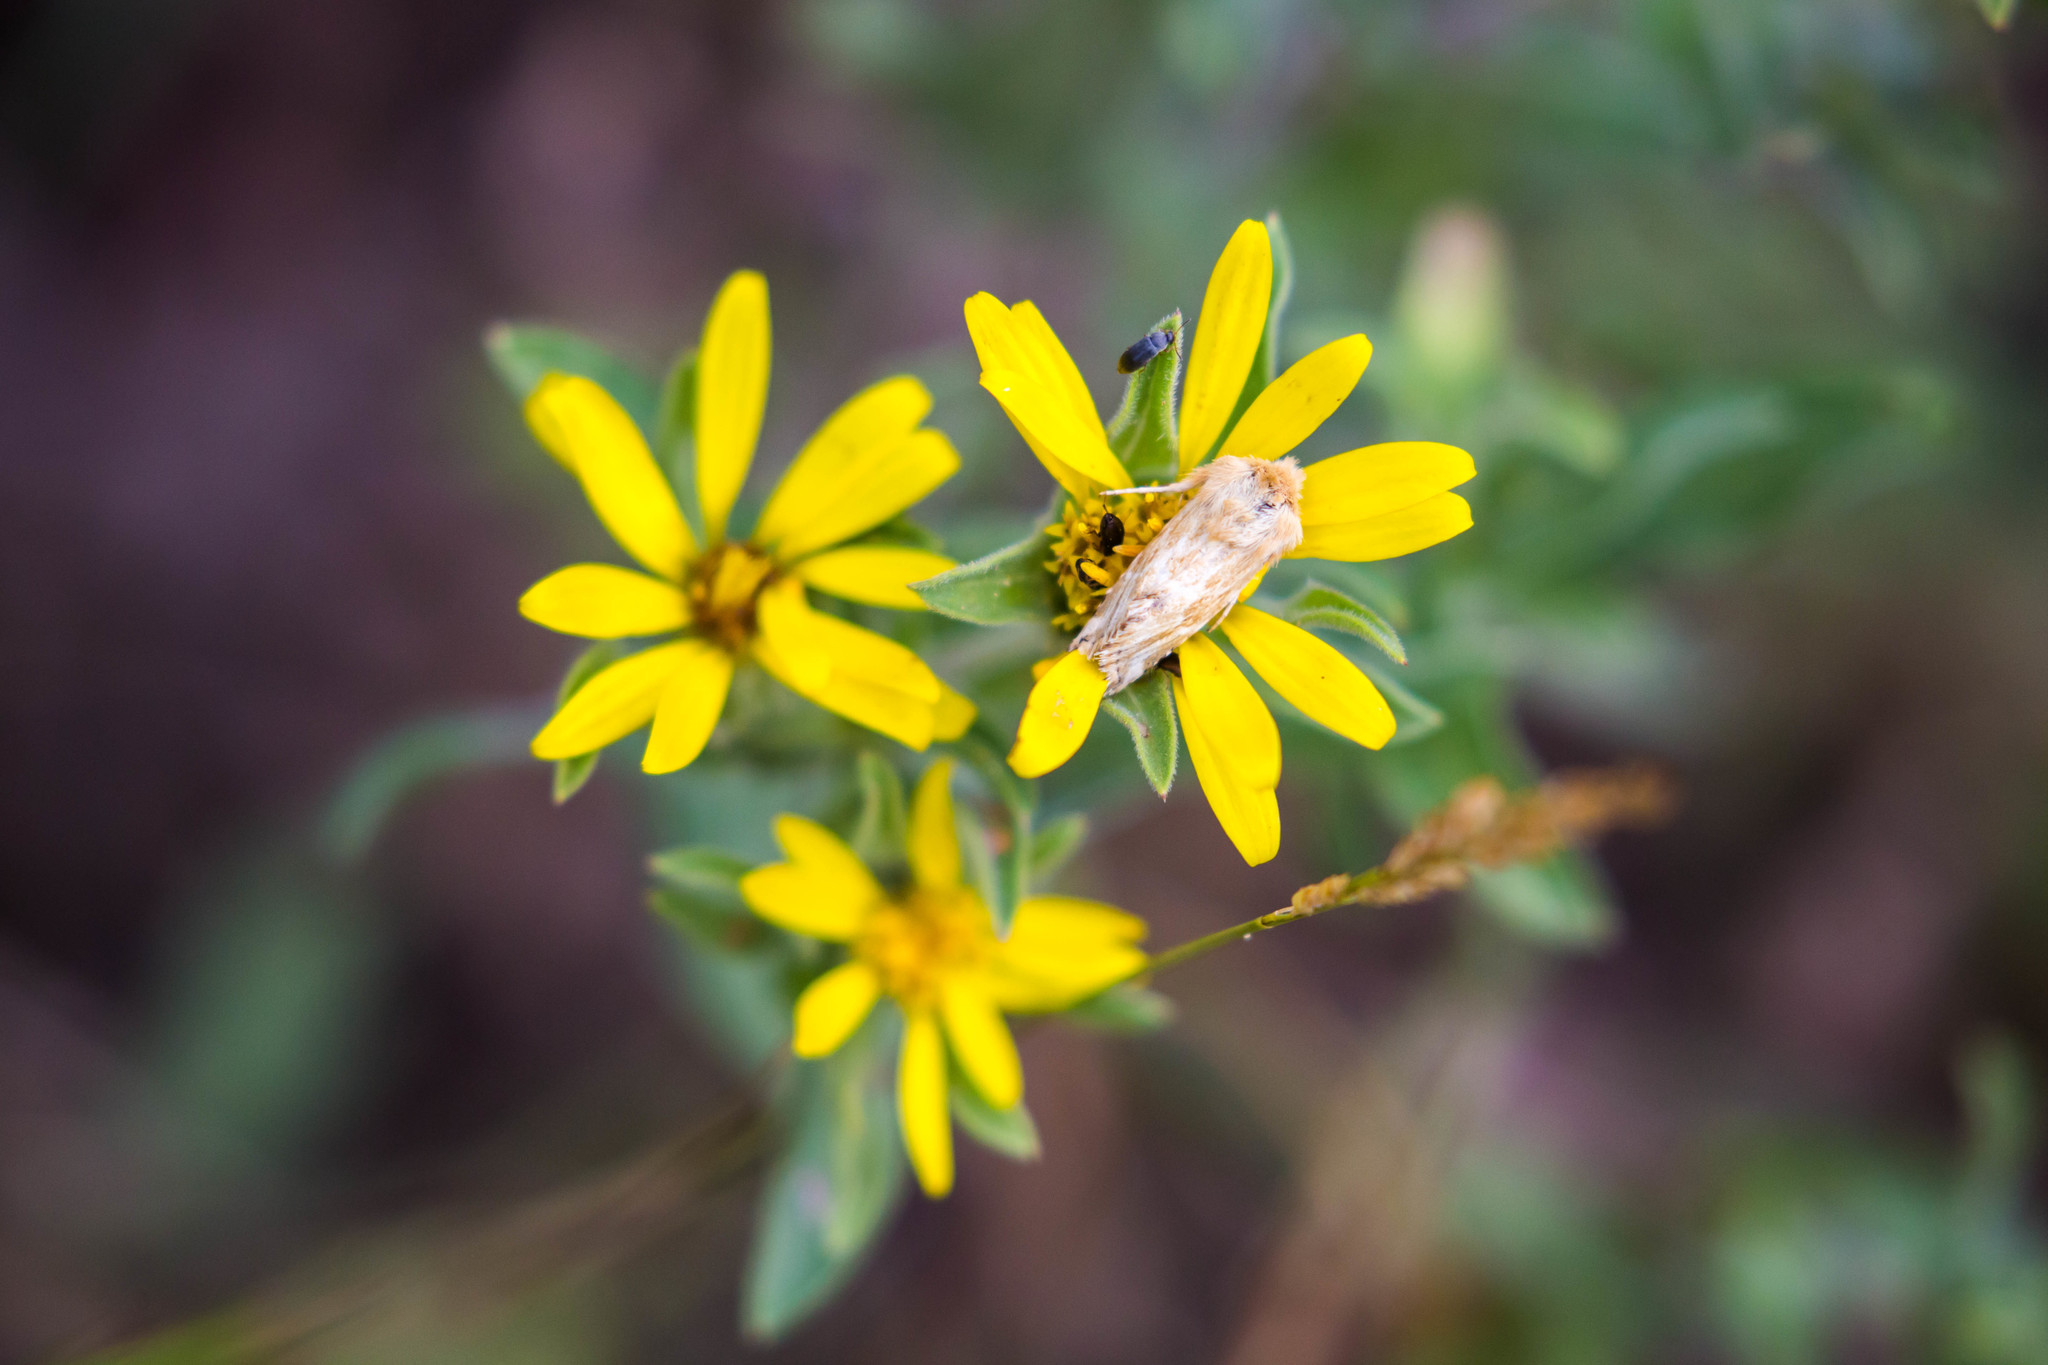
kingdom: Animalia
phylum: Arthropoda
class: Insecta
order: Lepidoptera
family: Noctuidae
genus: Pseudanthoecia
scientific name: Pseudanthoecia tumida
